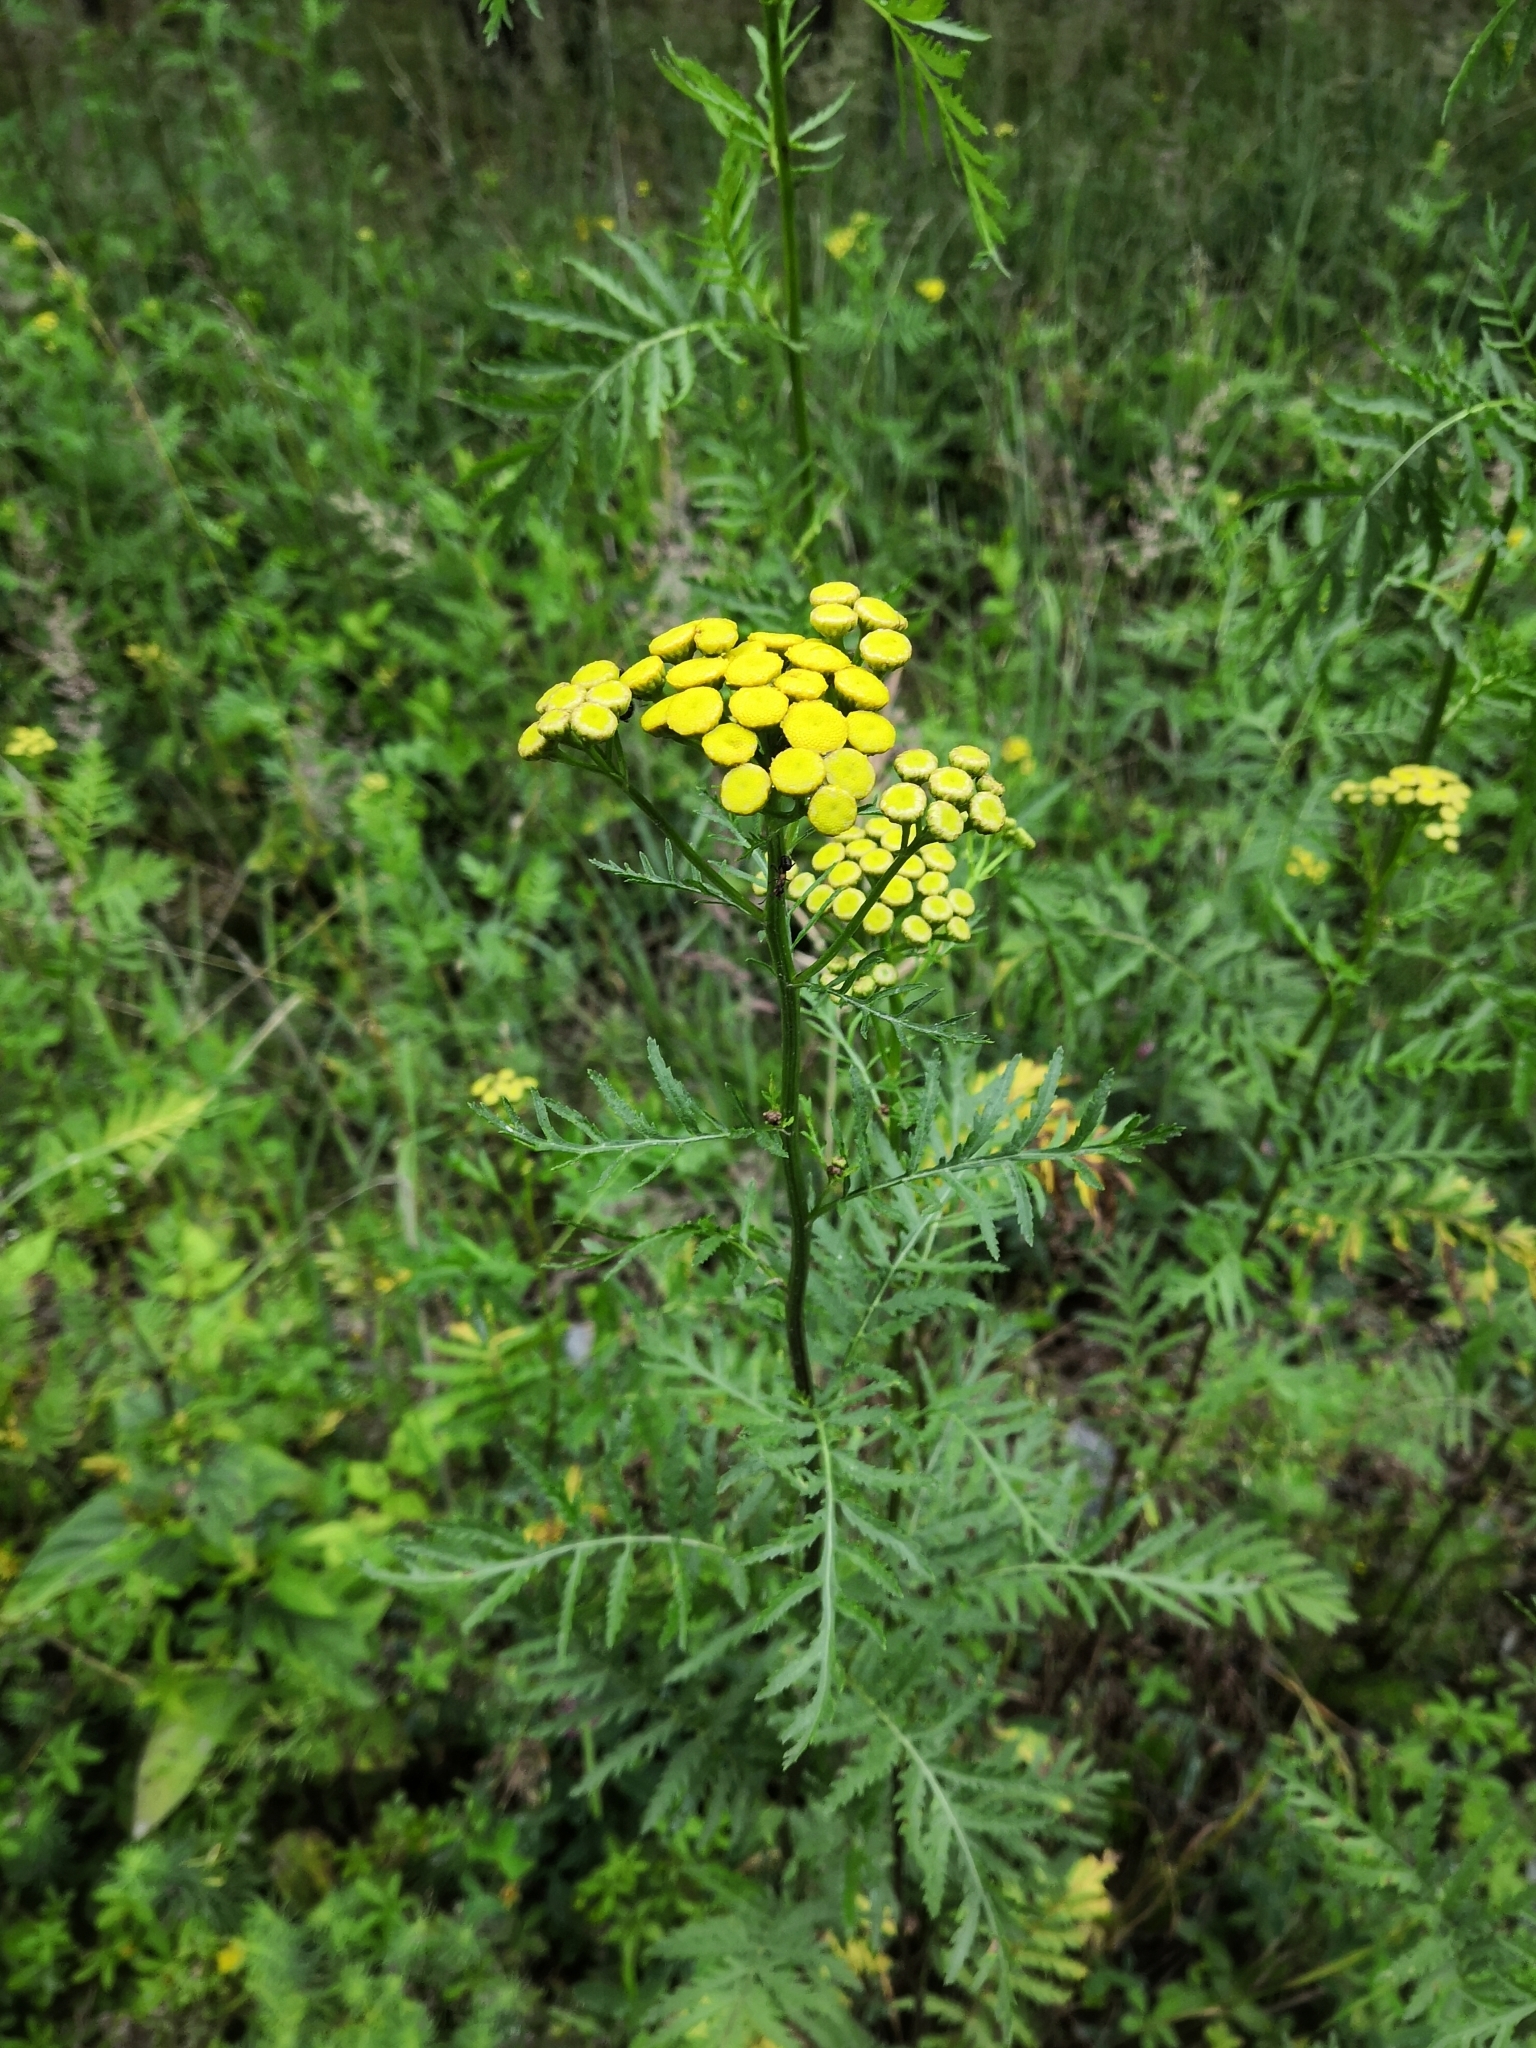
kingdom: Plantae
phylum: Tracheophyta
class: Magnoliopsida
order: Asterales
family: Asteraceae
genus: Tanacetum
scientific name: Tanacetum vulgare
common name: Common tansy
